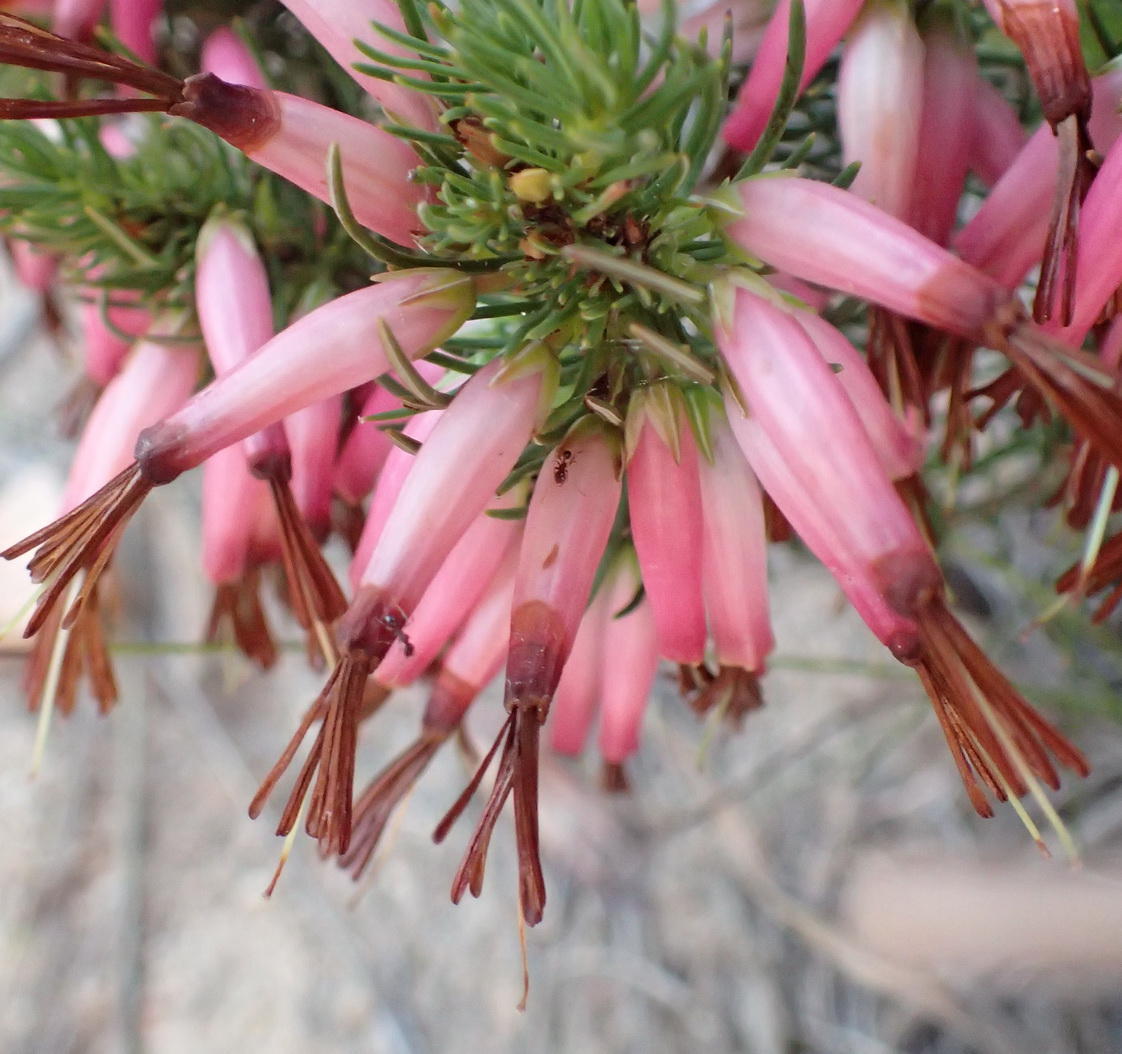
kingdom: Plantae
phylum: Tracheophyta
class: Magnoliopsida
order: Ericales
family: Ericaceae
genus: Erica
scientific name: Erica plukenetii
